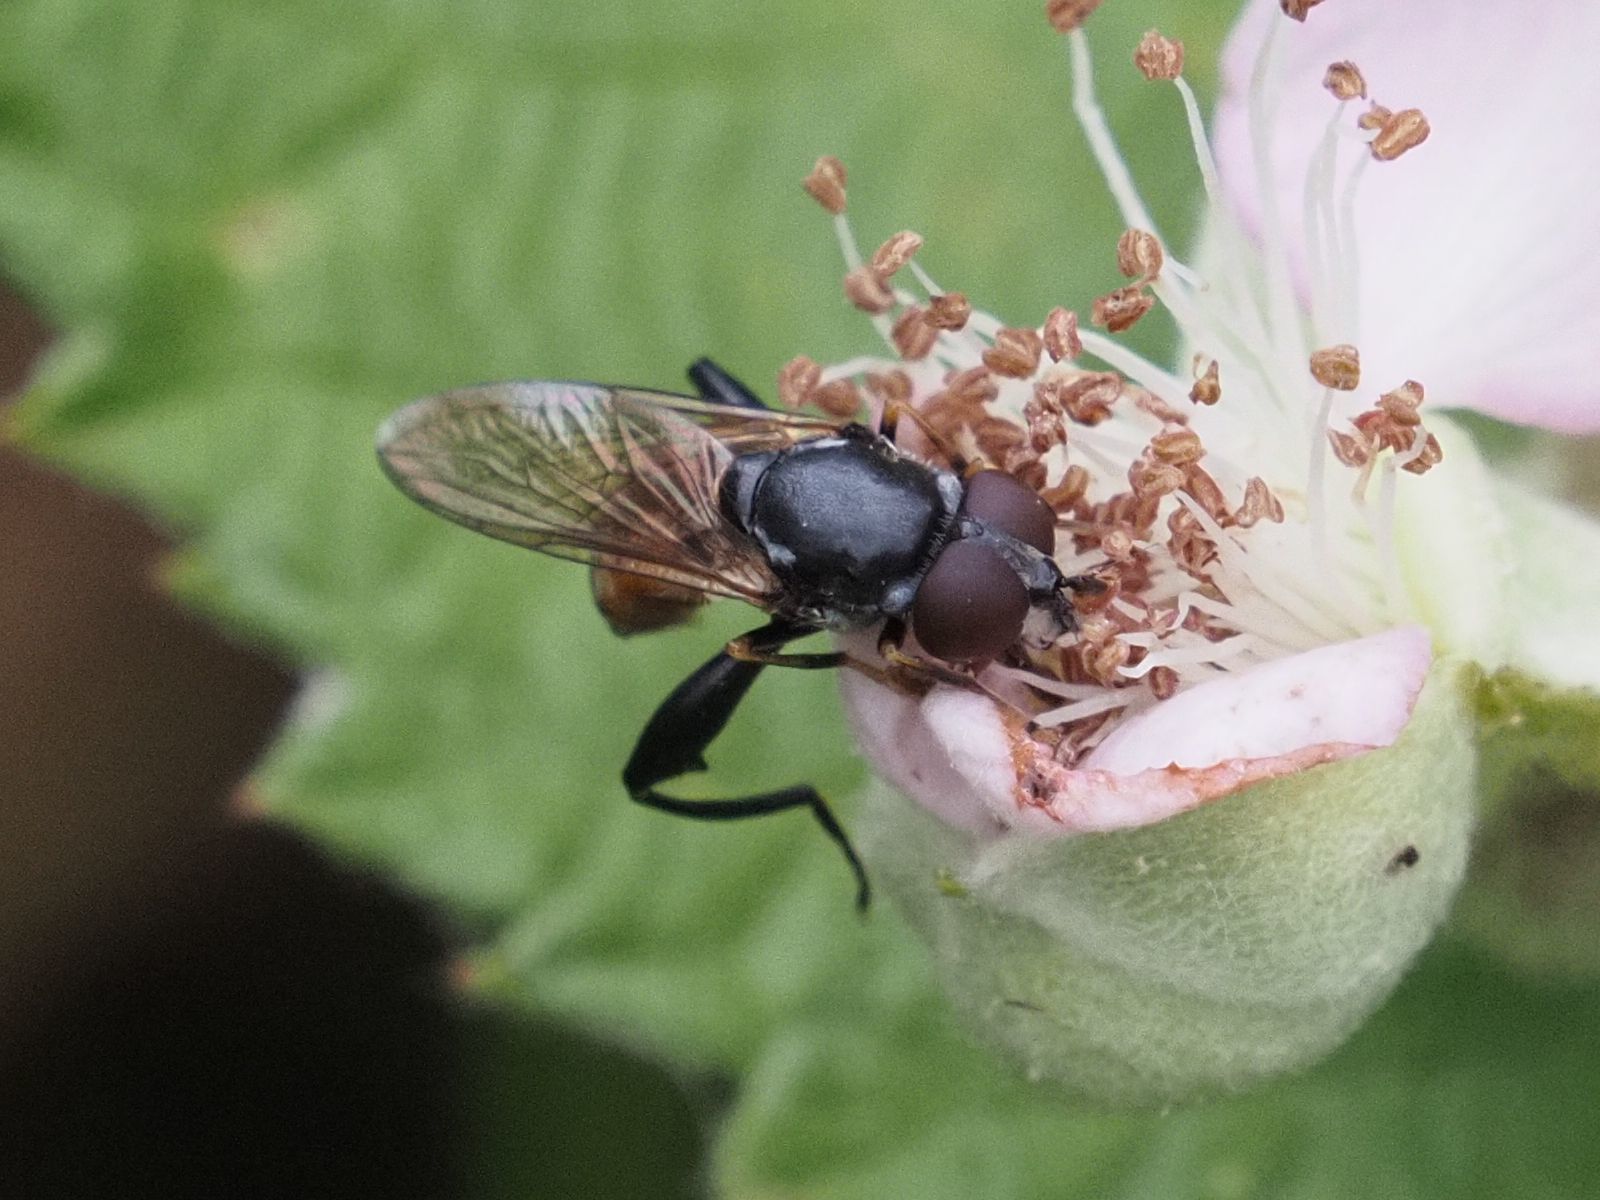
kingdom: Animalia
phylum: Arthropoda
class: Insecta
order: Diptera
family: Syrphidae
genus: Tropidia
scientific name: Tropidia scita
